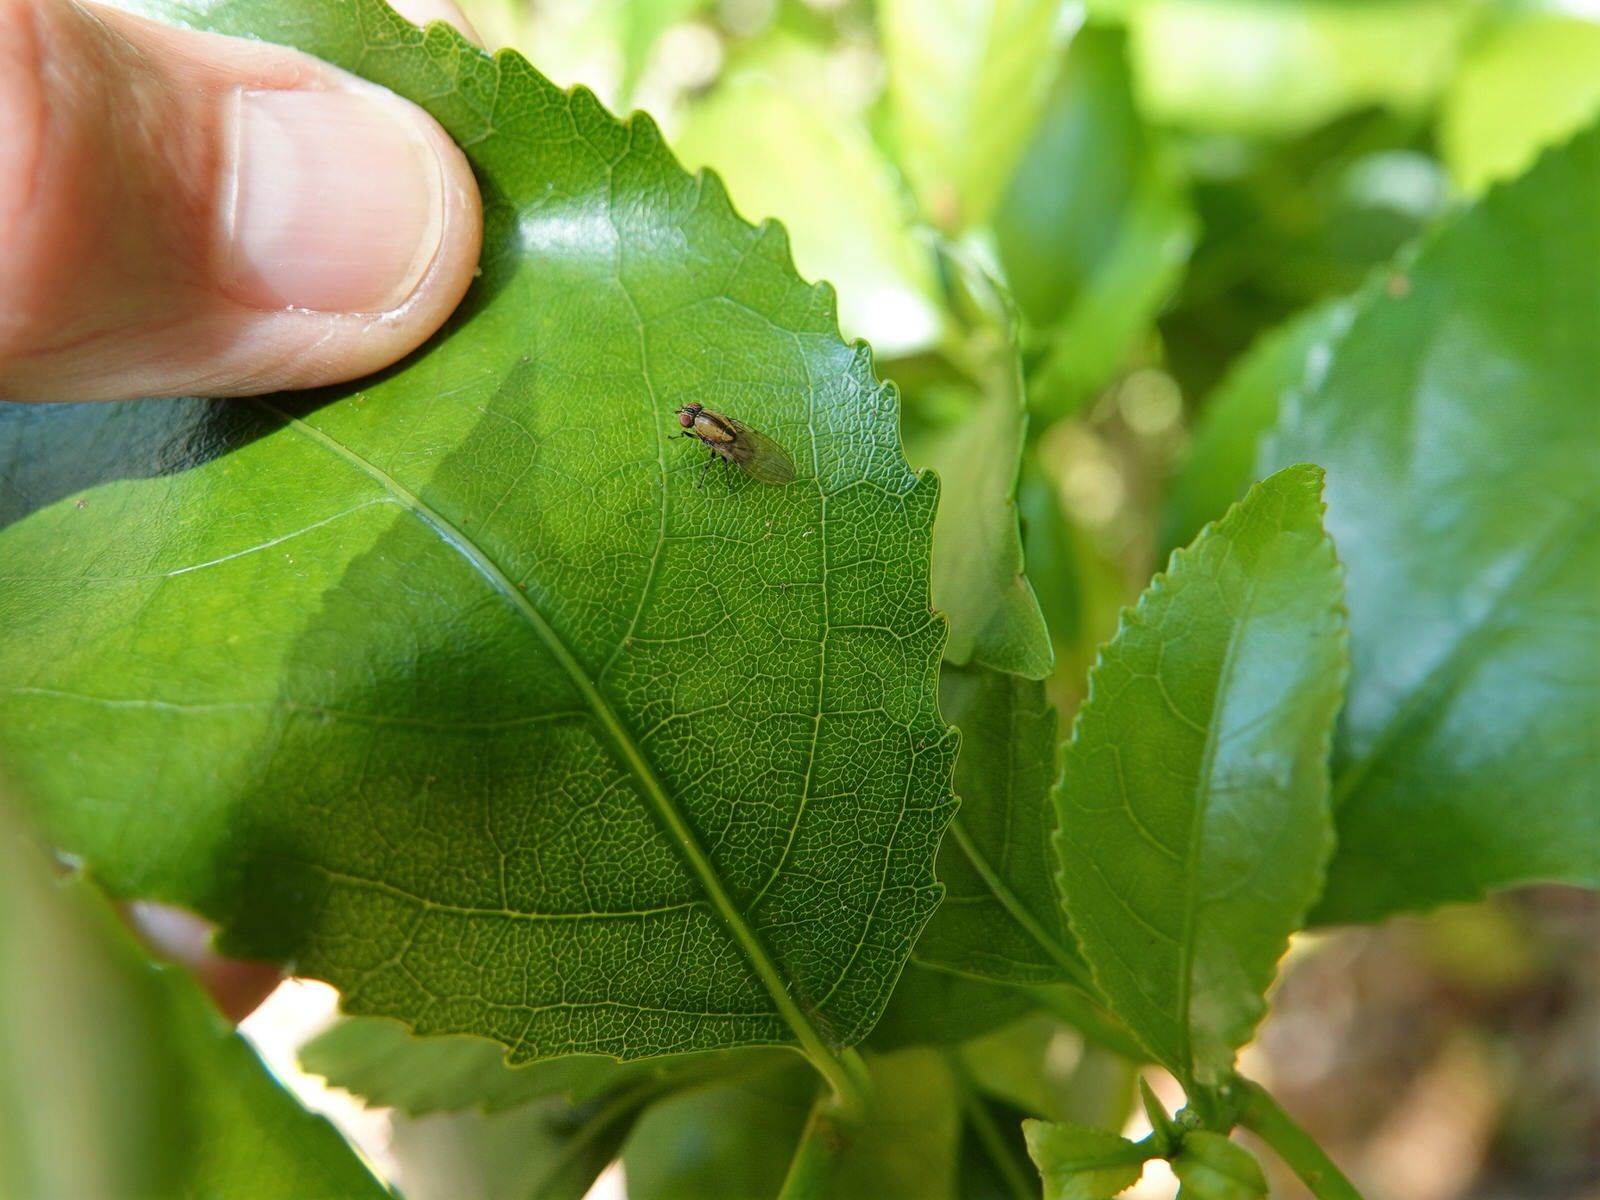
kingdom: Animalia
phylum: Arthropoda
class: Insecta
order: Diptera
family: Lauxaniidae
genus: Sapromyza
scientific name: Sapromyza neozelandica
